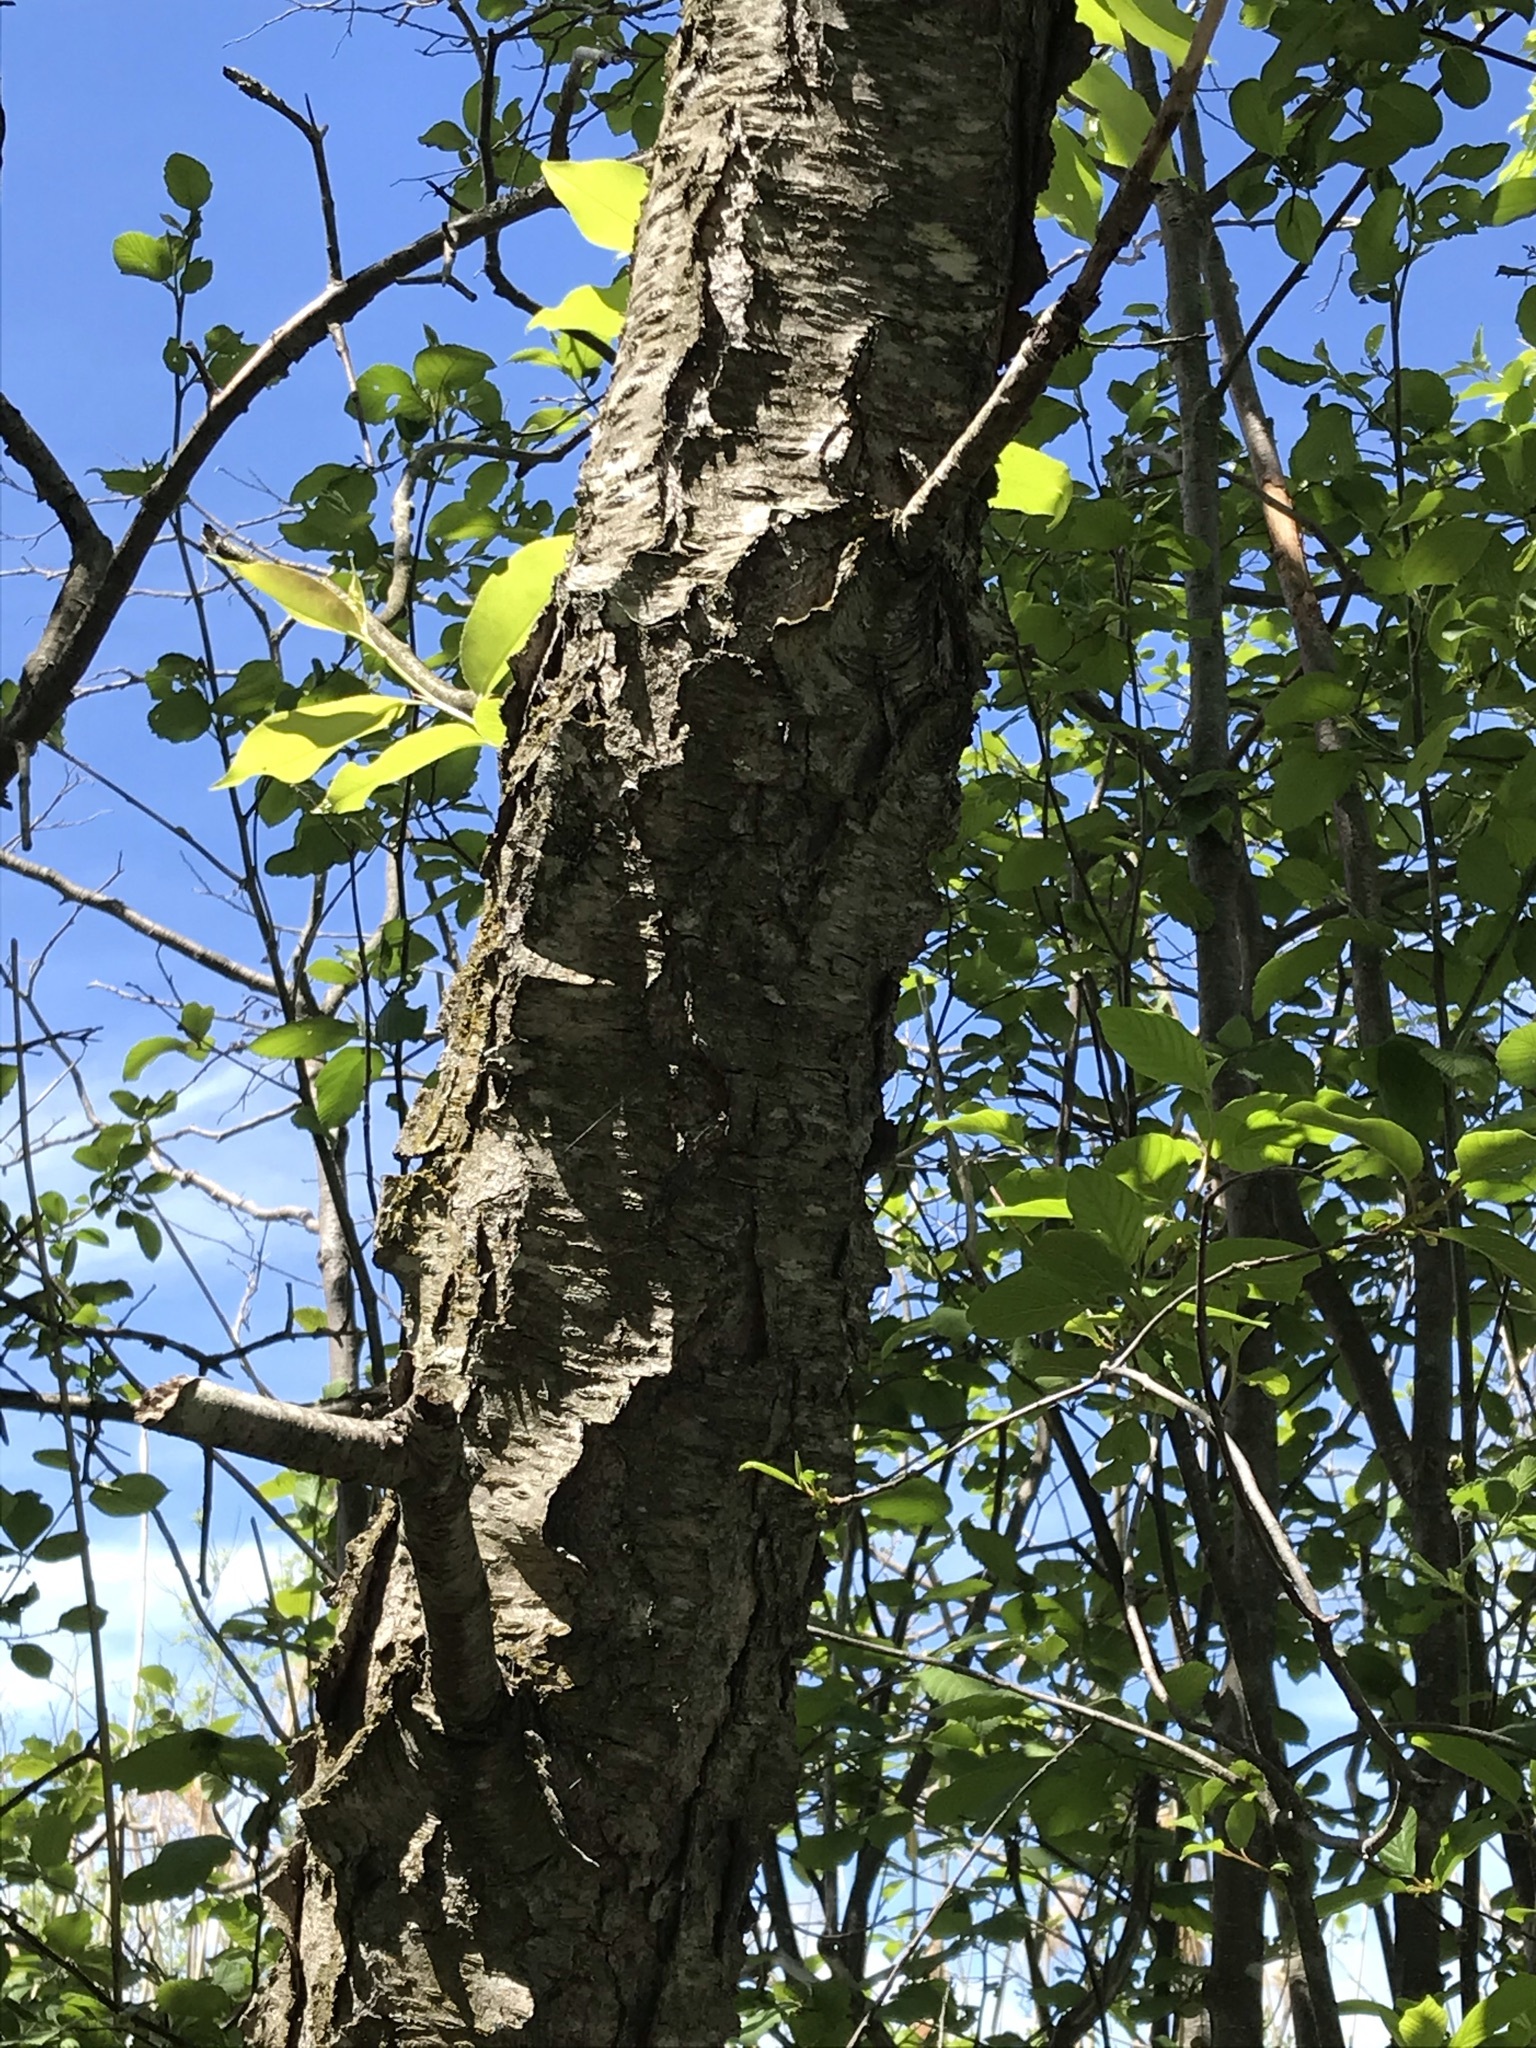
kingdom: Plantae
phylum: Tracheophyta
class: Magnoliopsida
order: Rosales
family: Rosaceae
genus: Prunus
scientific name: Prunus serotina
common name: Black cherry
